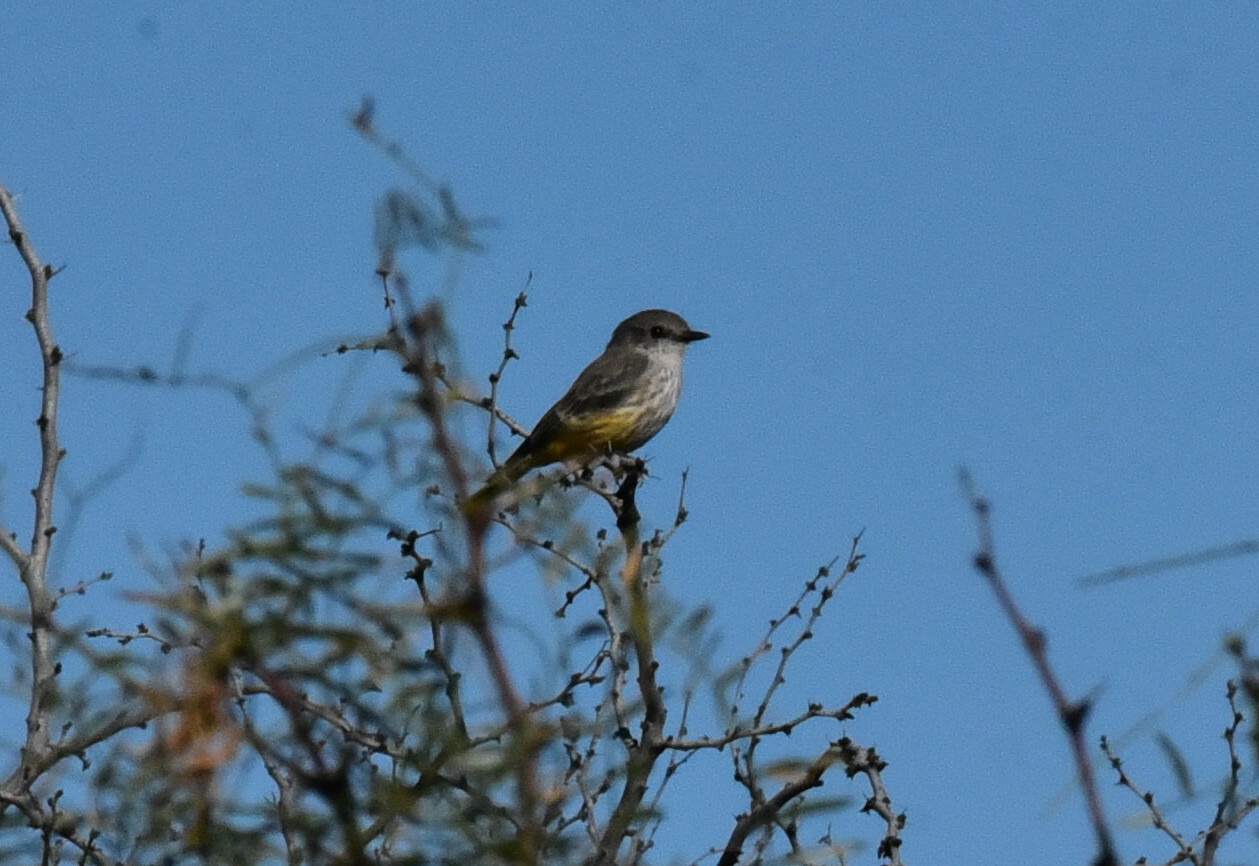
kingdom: Animalia
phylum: Chordata
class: Aves
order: Passeriformes
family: Tyrannidae
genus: Pyrocephalus
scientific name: Pyrocephalus rubinus
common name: Vermilion flycatcher
